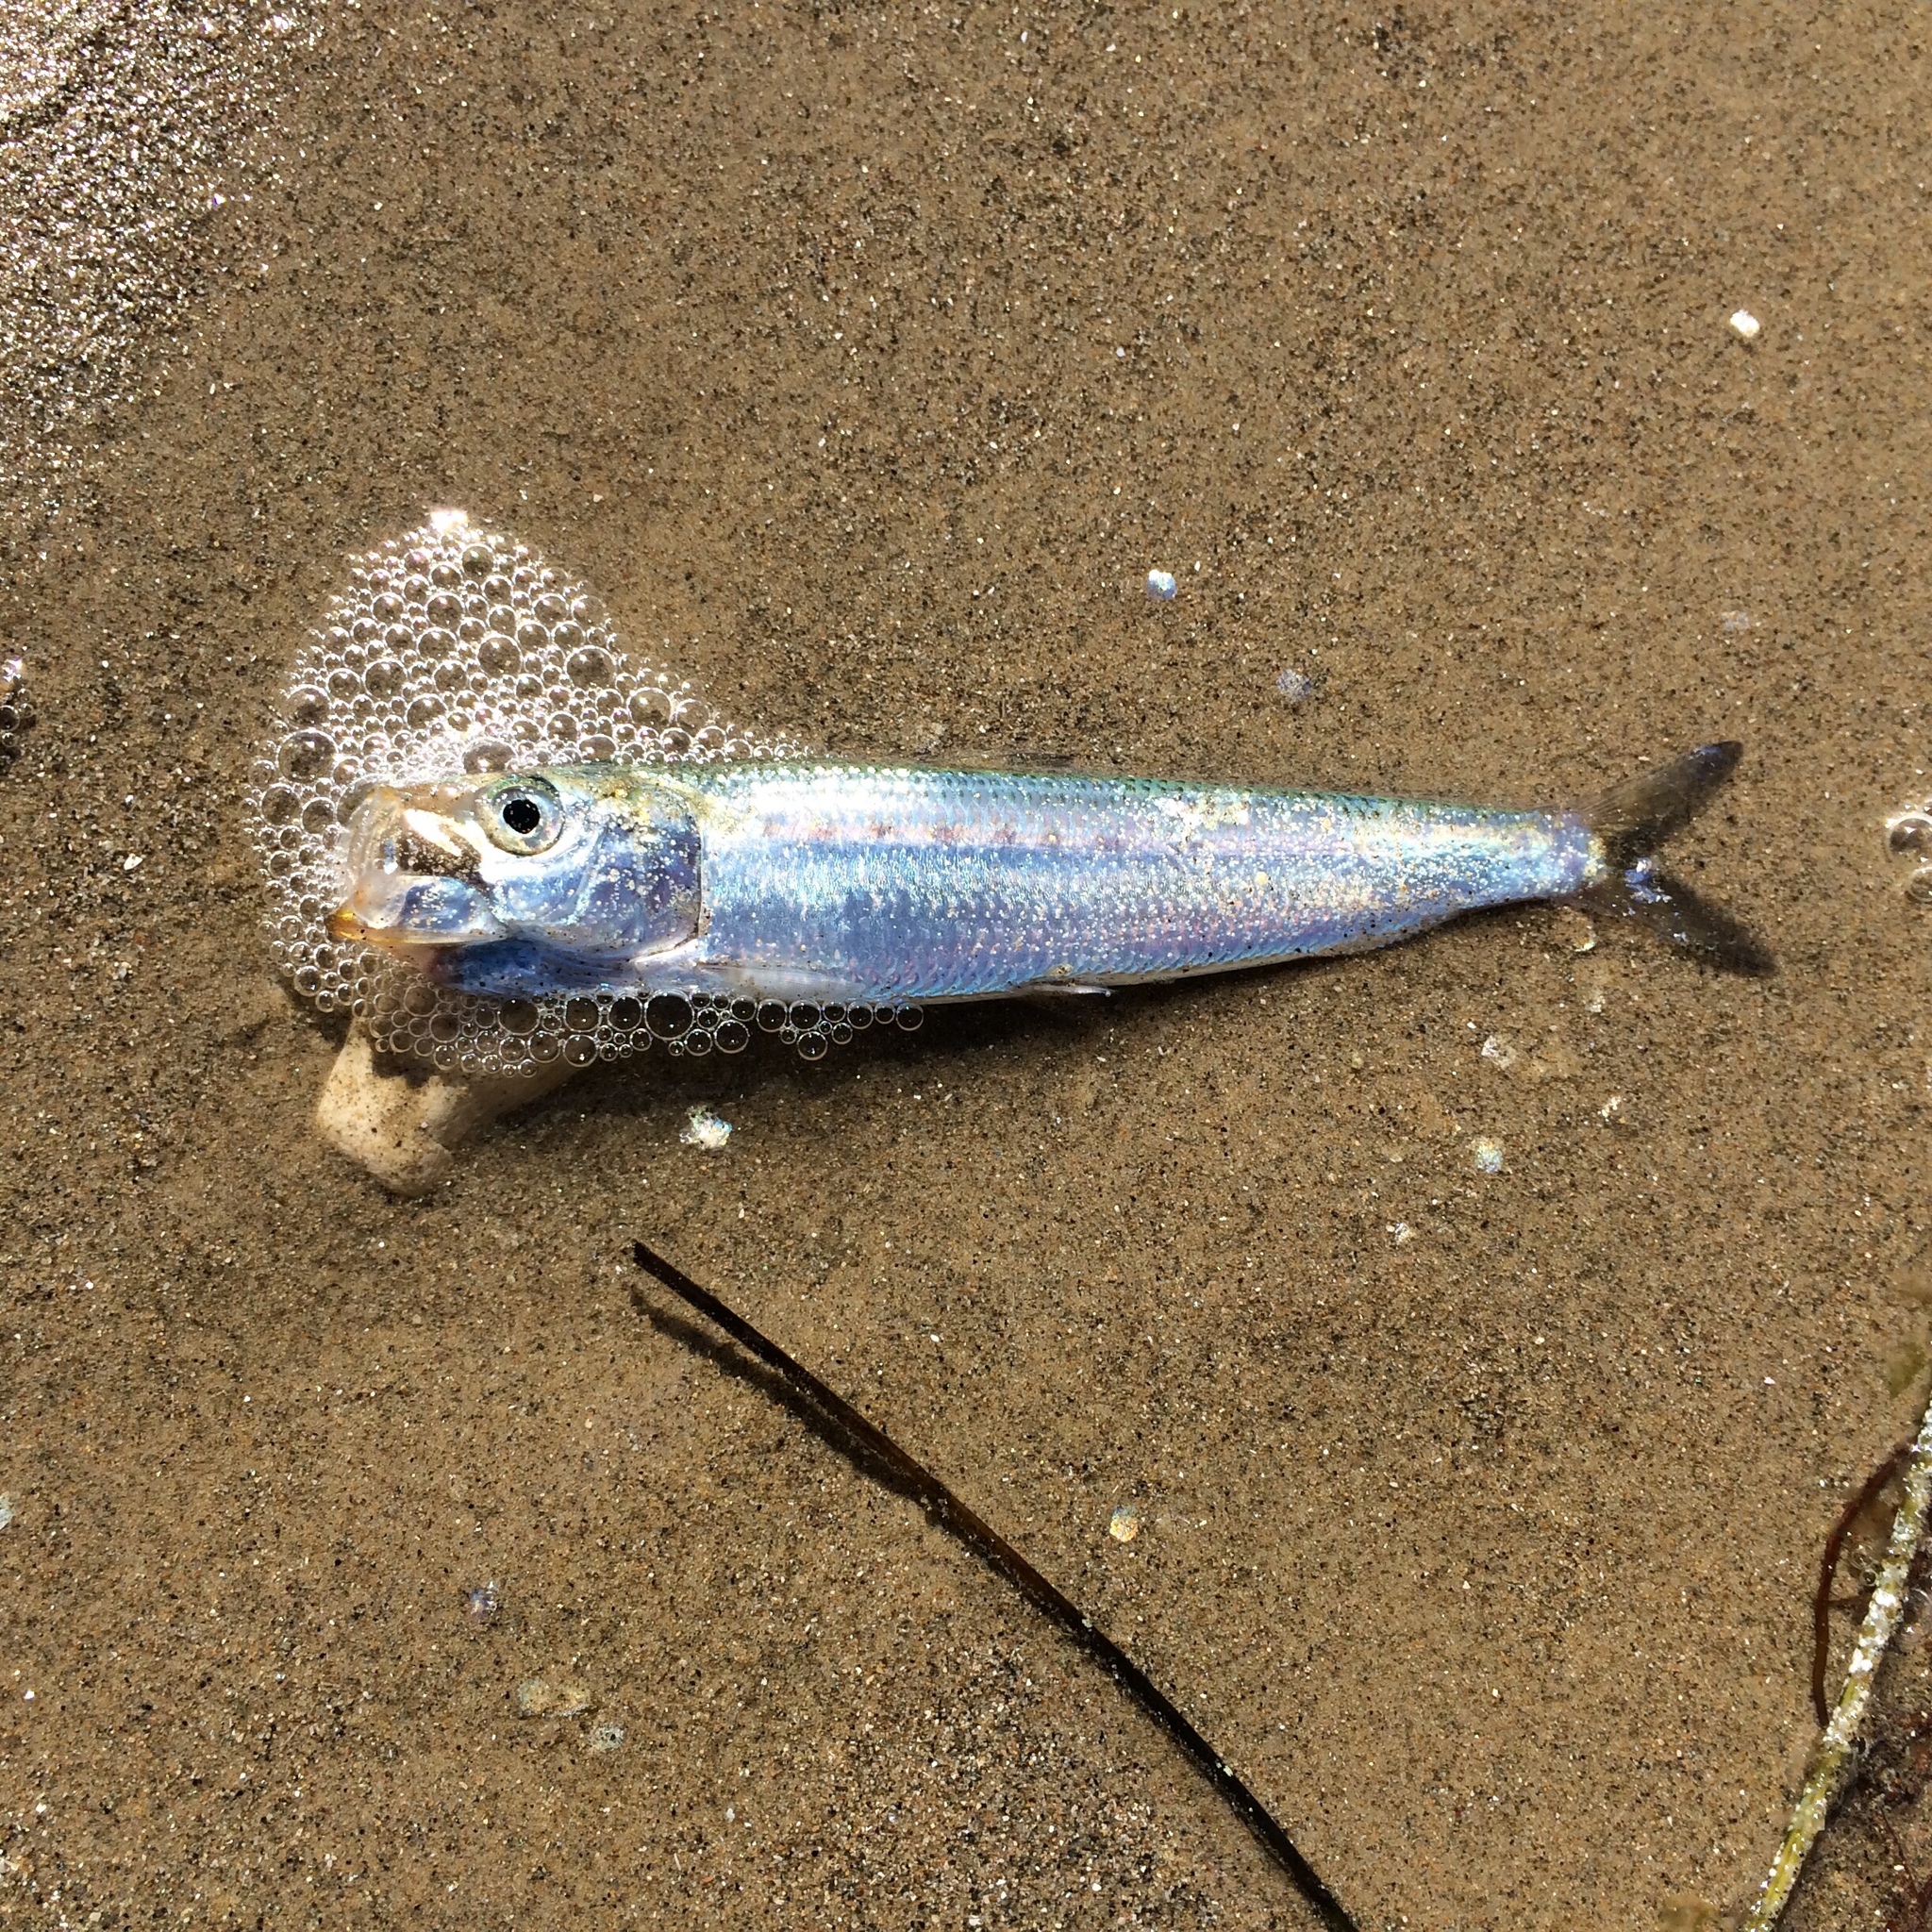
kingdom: Animalia
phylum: Chordata
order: Clupeiformes
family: Clupeidae
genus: Sardinops
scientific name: Sardinops sagax
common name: Pilchard
